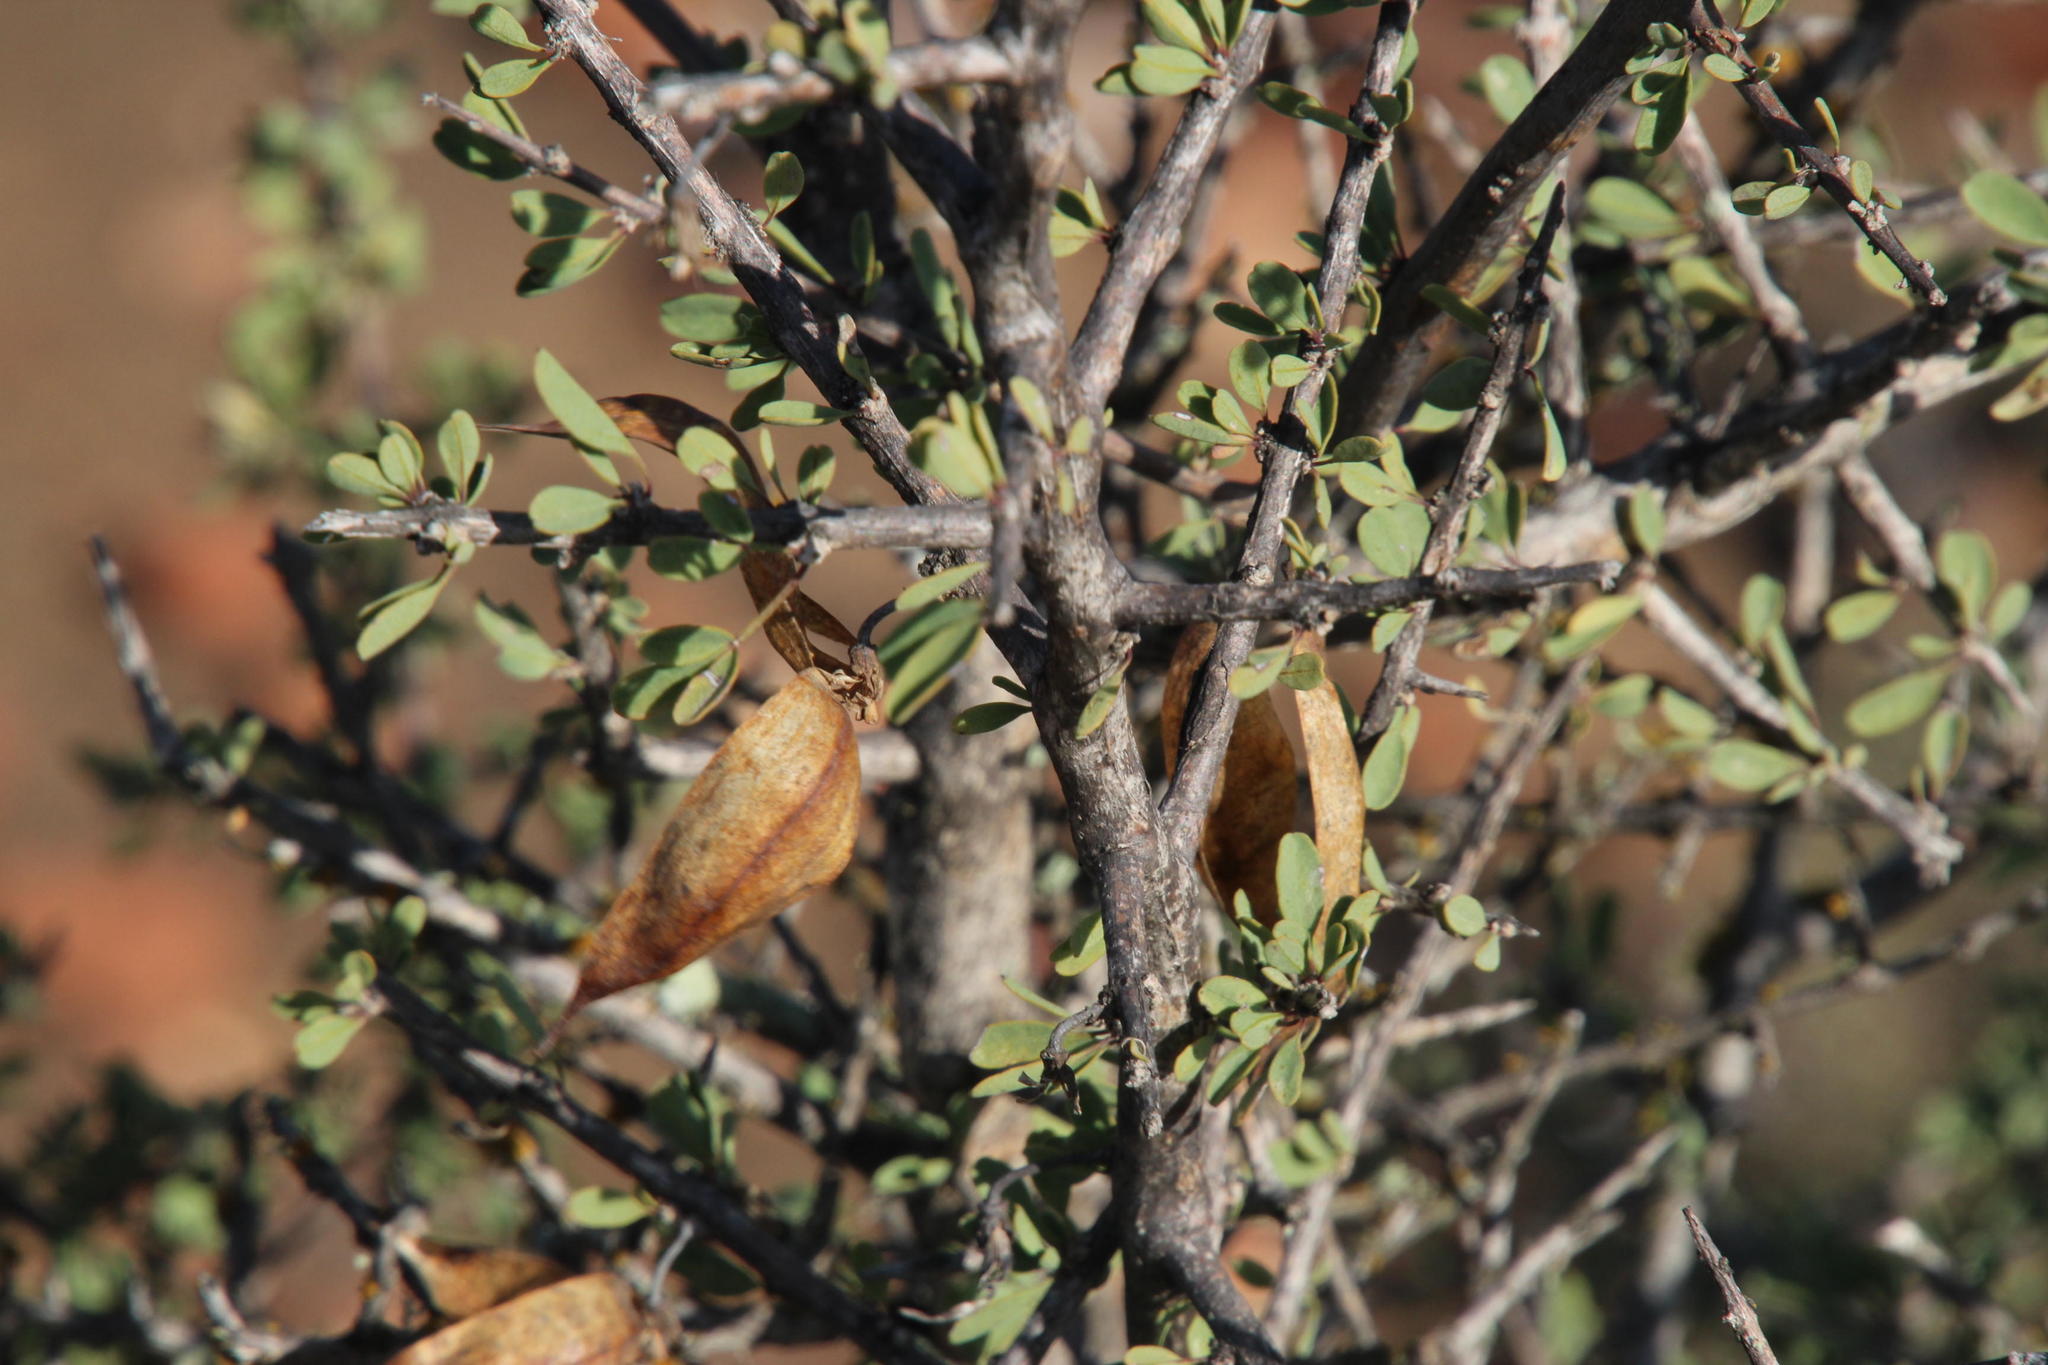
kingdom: Plantae
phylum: Tracheophyta
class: Magnoliopsida
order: Lamiales
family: Bignoniaceae
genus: Rhigozum
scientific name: Rhigozum obovatum
